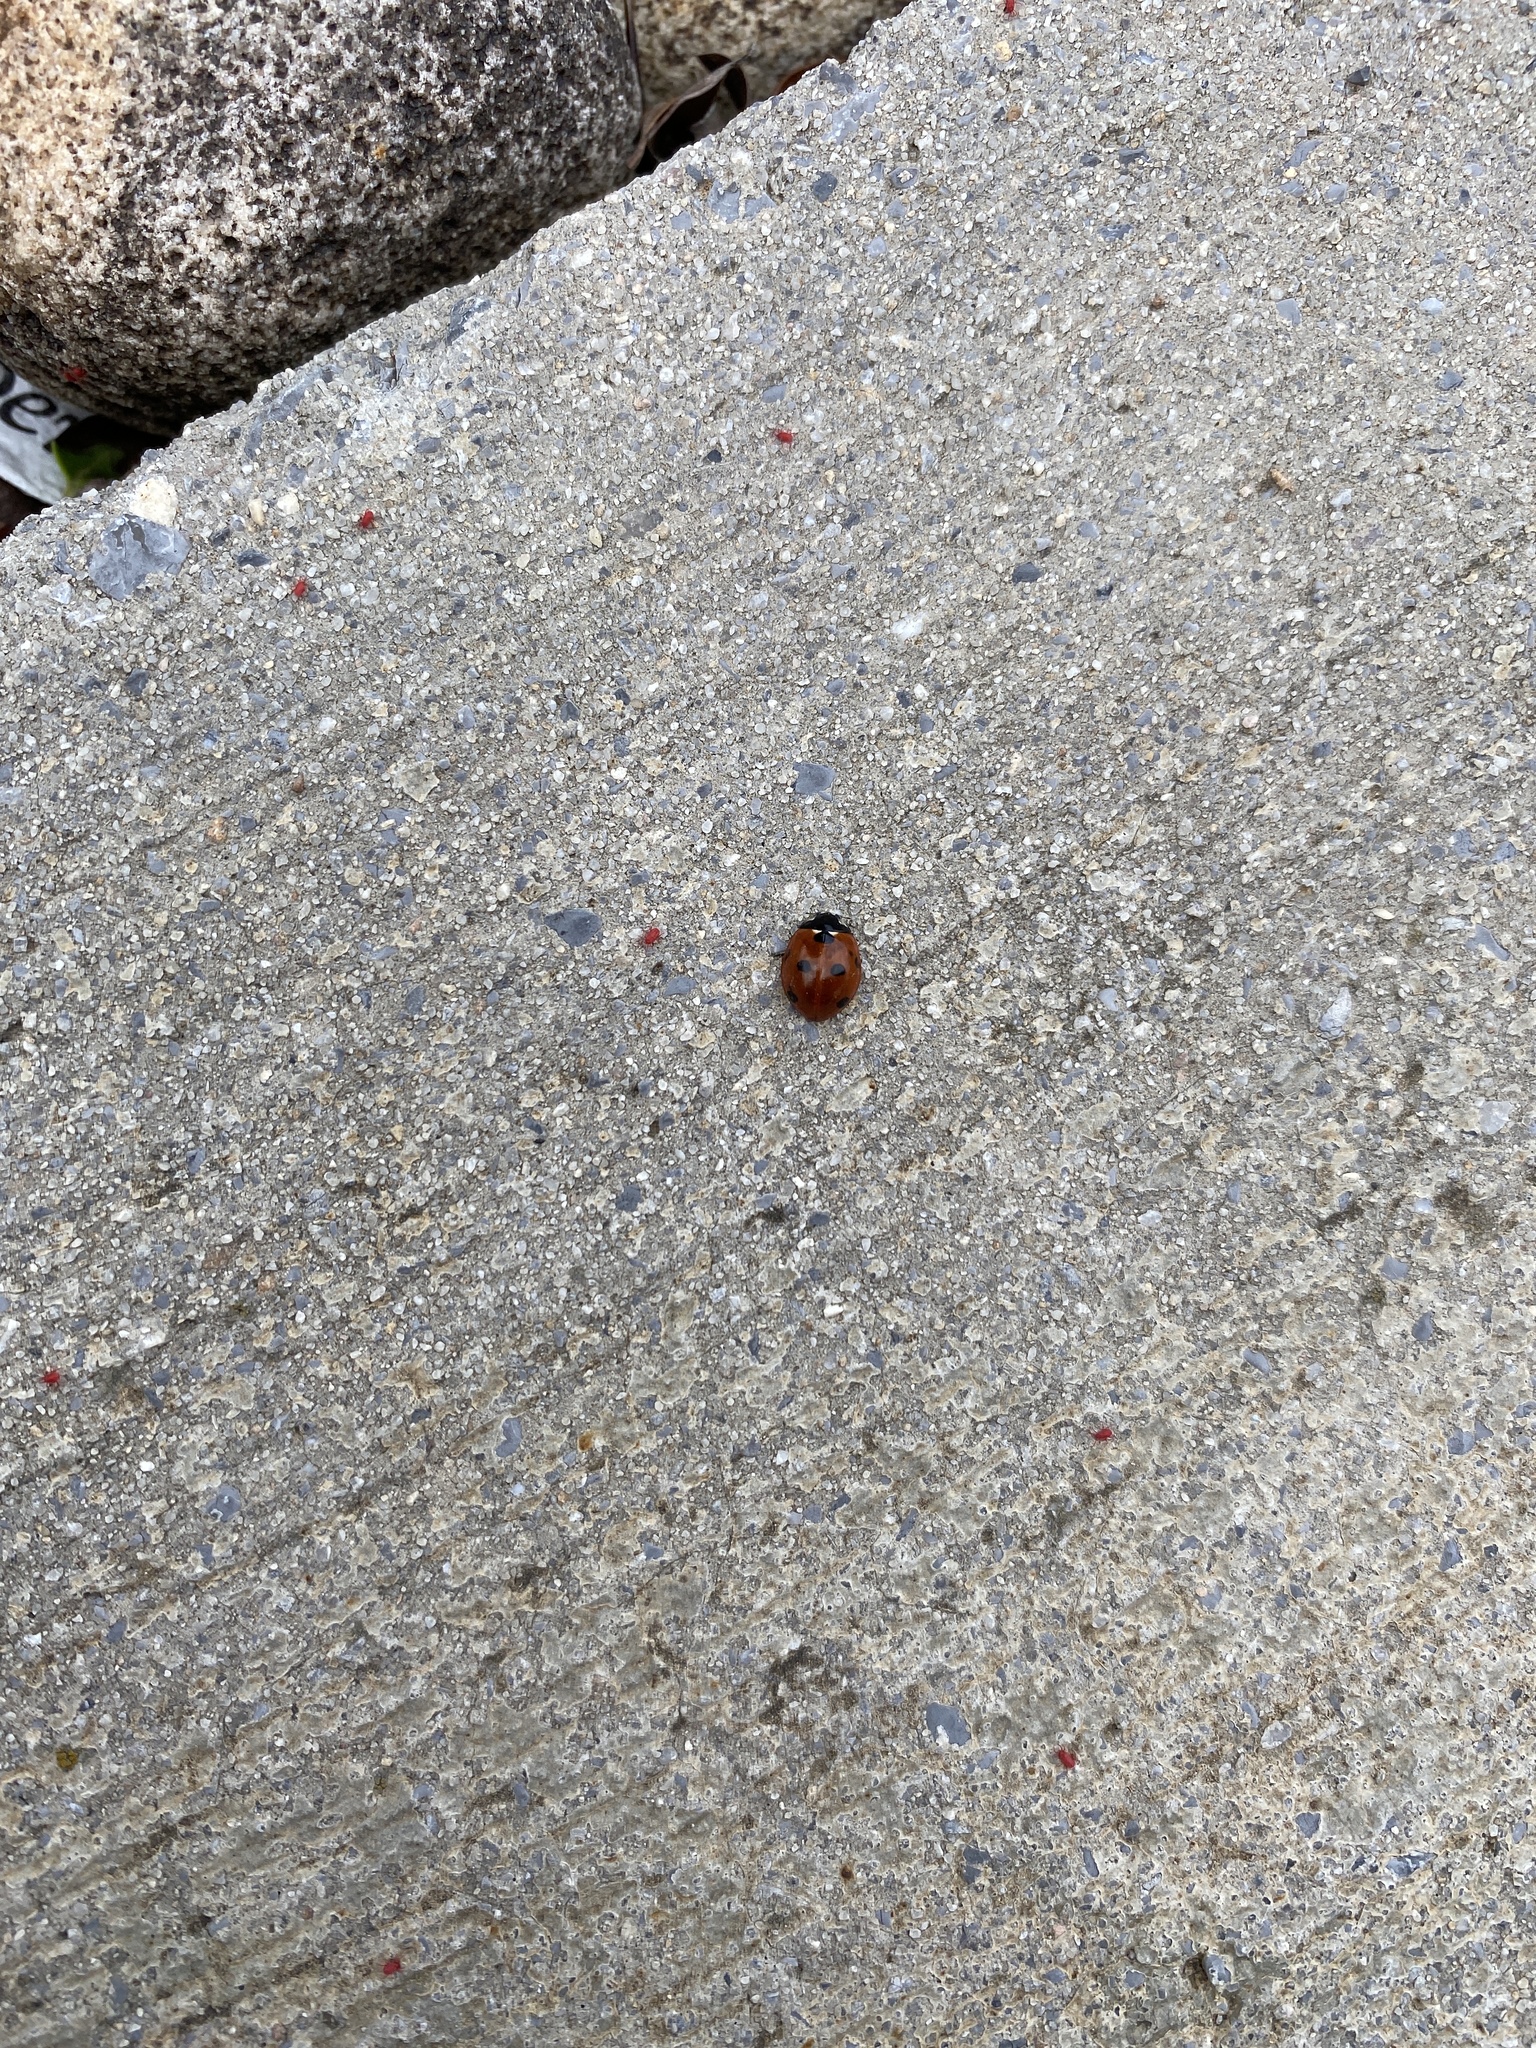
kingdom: Animalia
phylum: Arthropoda
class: Insecta
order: Coleoptera
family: Coccinellidae
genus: Coccinella
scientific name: Coccinella septempunctata
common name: Sevenspotted lady beetle
